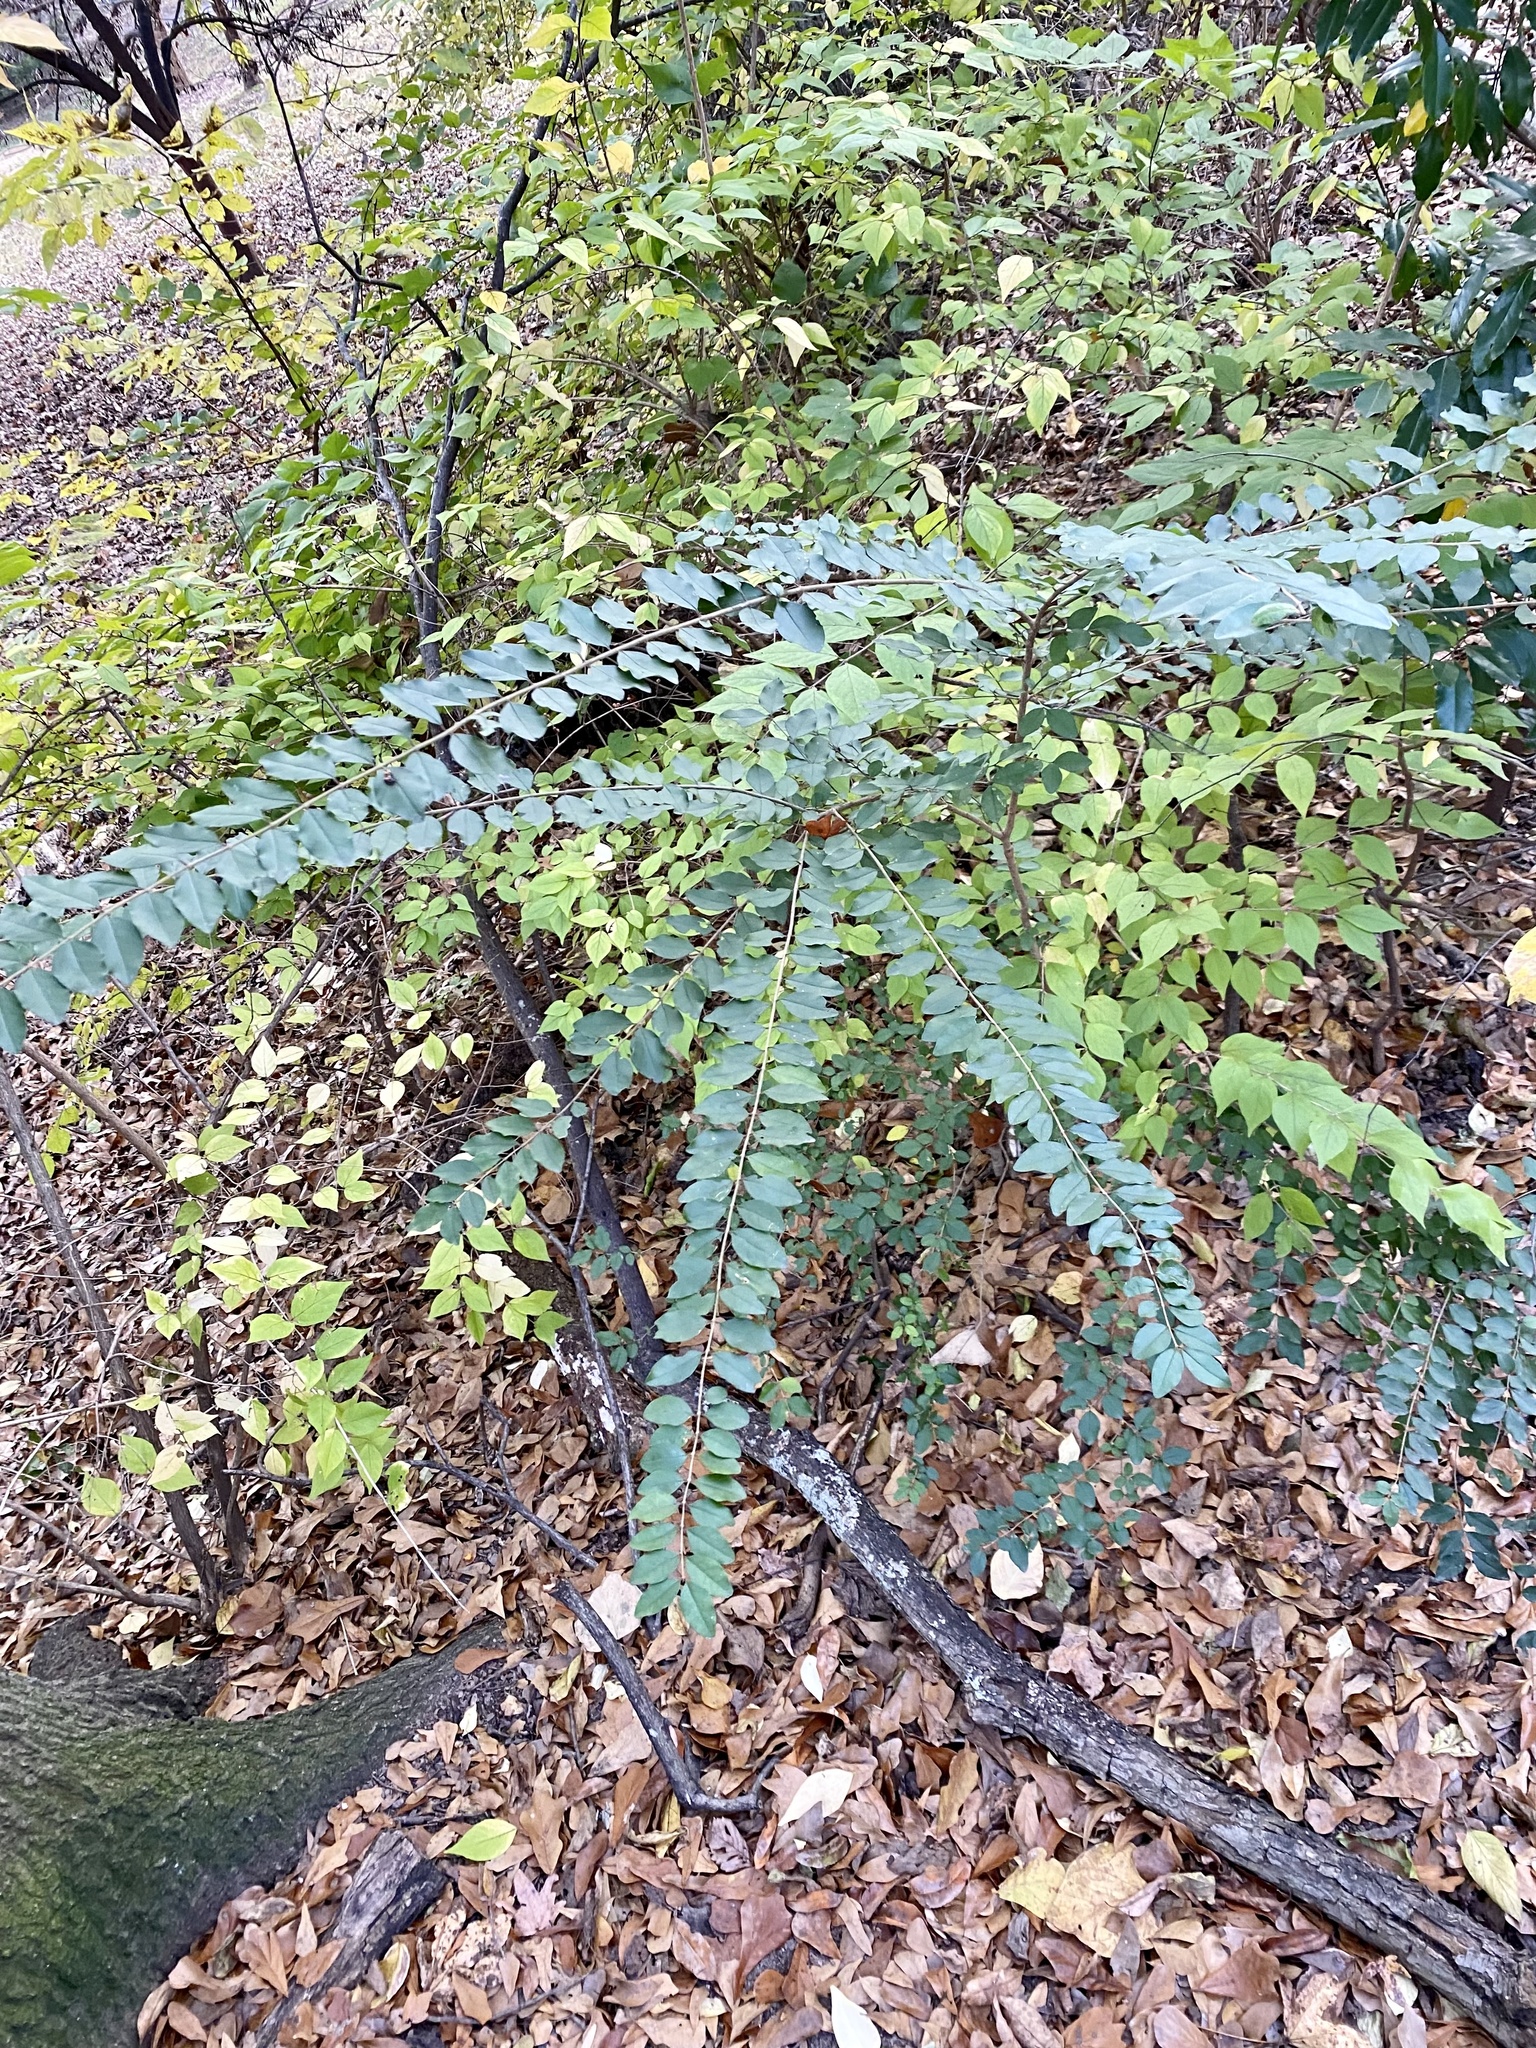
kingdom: Plantae
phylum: Tracheophyta
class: Magnoliopsida
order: Lamiales
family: Oleaceae
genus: Ligustrum
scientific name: Ligustrum sinense
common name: Chinese privet
